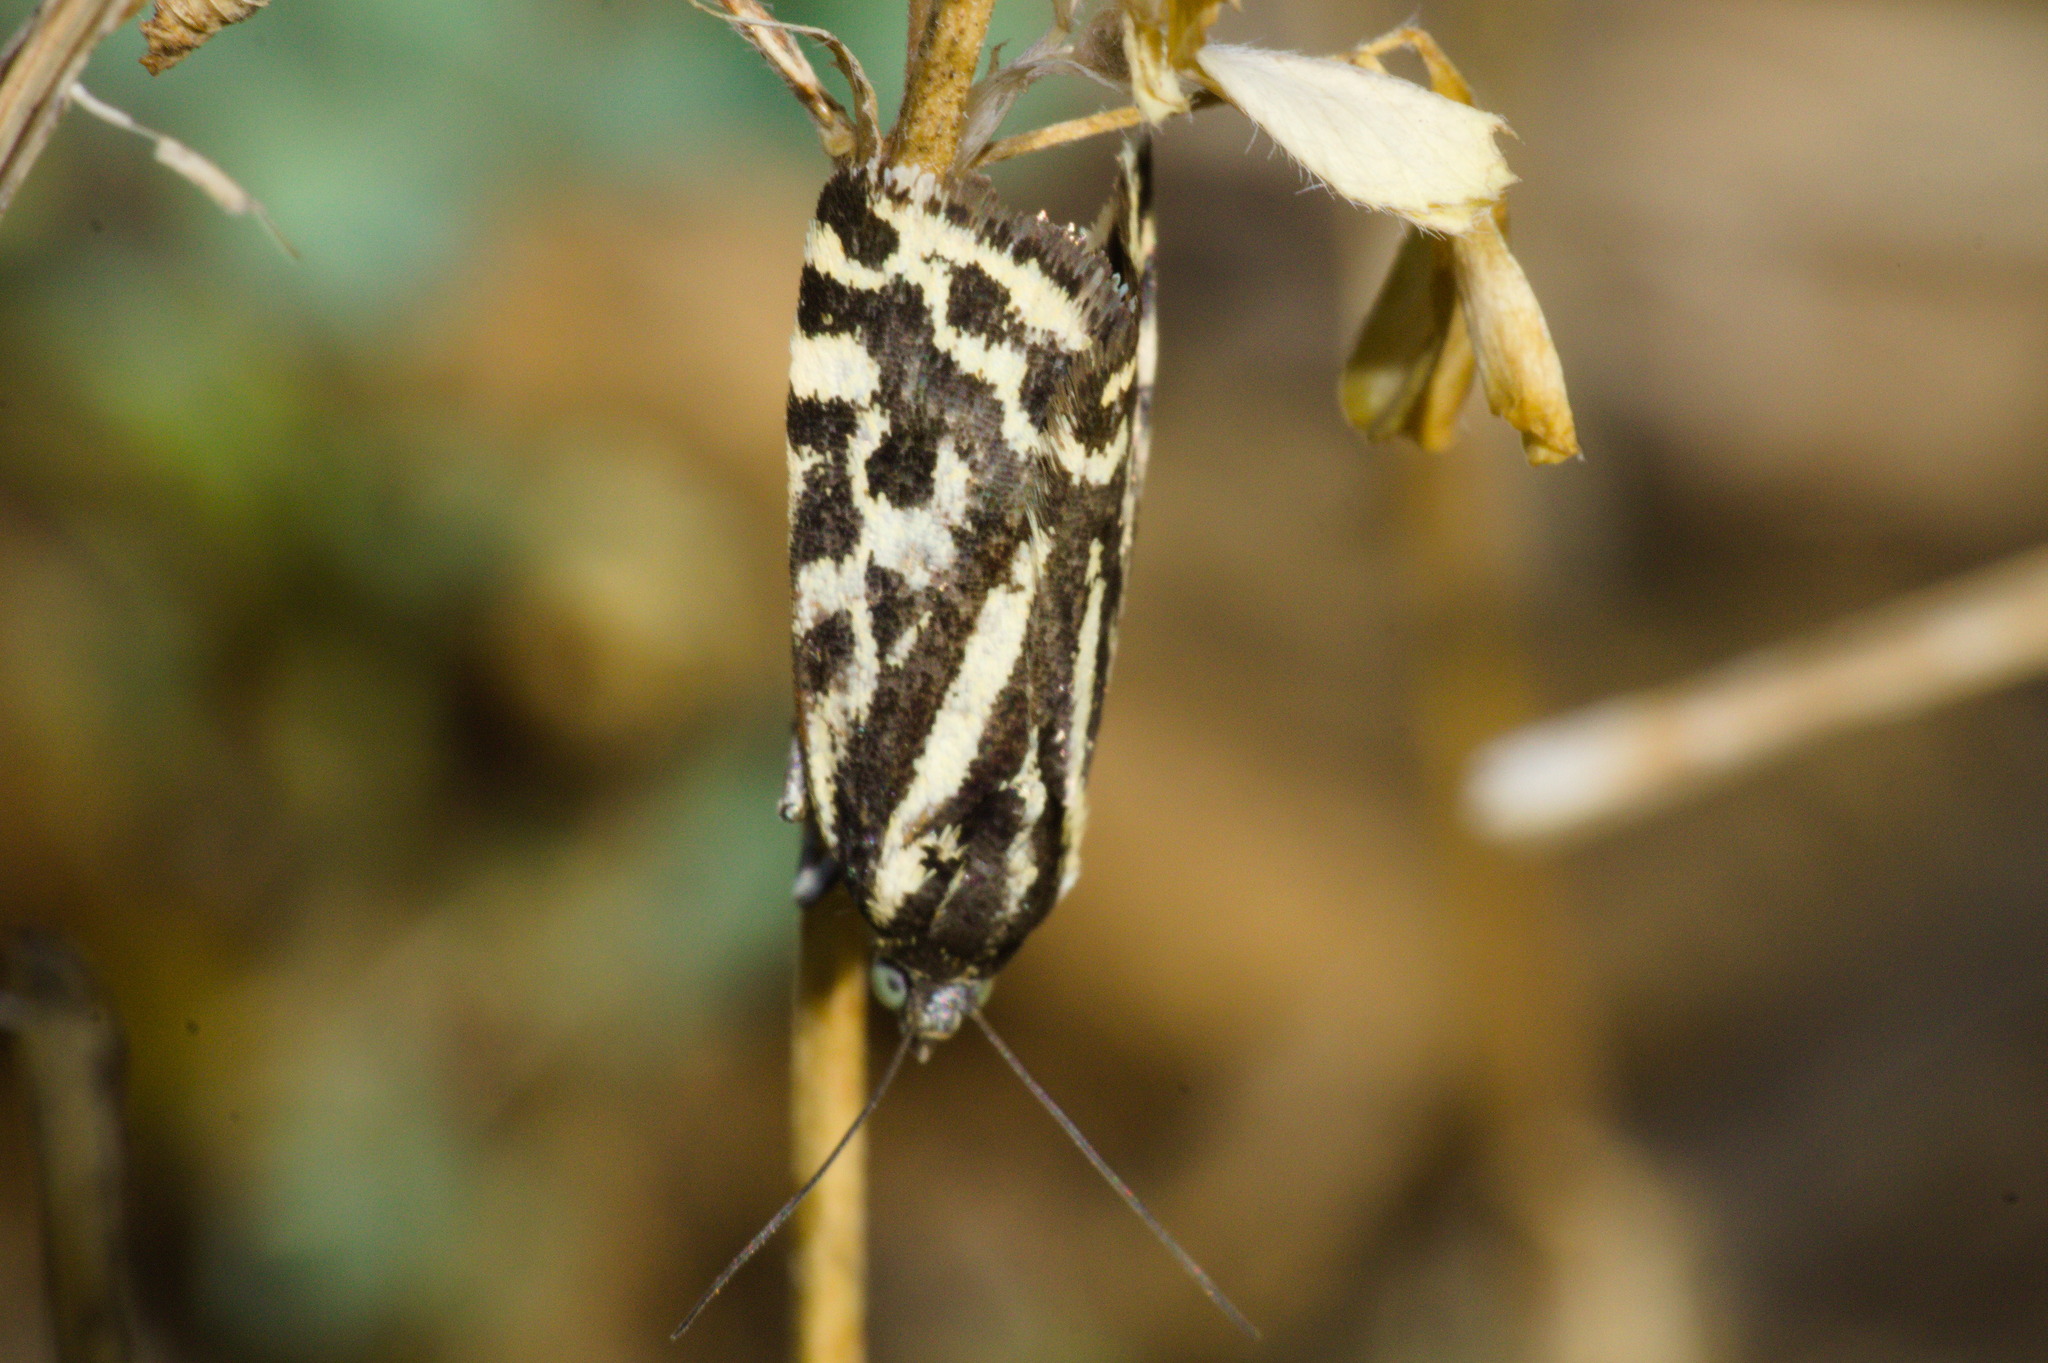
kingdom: Animalia
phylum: Arthropoda
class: Insecta
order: Lepidoptera
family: Noctuidae
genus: Acontia
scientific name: Acontia trabealis
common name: Spotted sulphur
